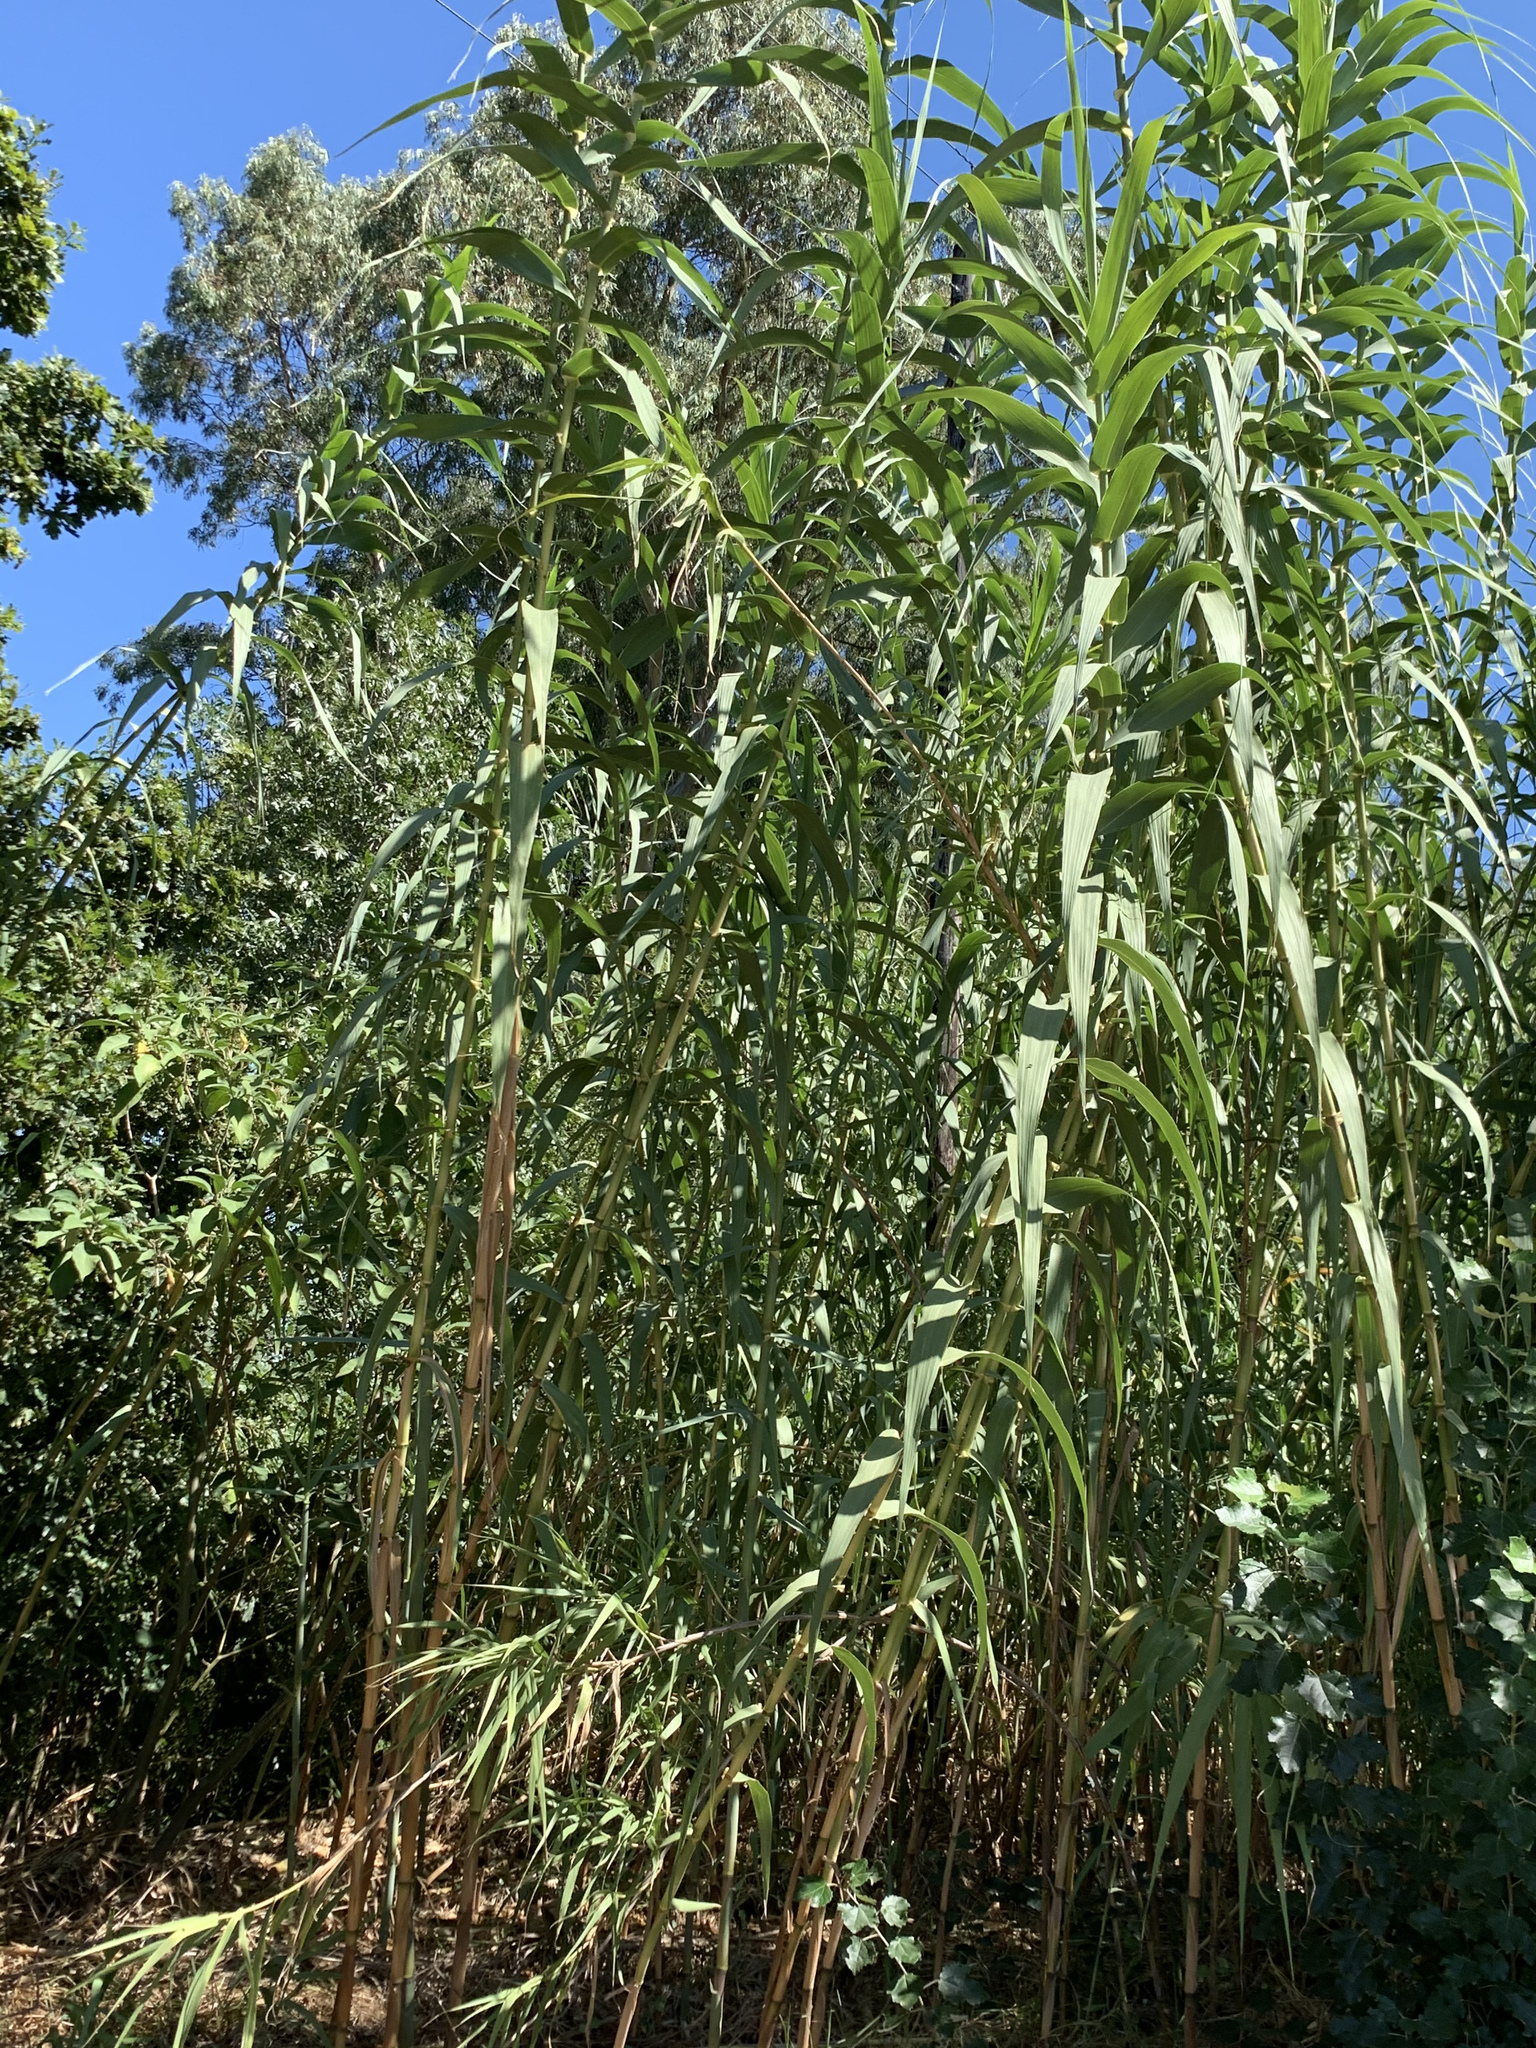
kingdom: Plantae
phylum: Tracheophyta
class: Liliopsida
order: Poales
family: Poaceae
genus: Arundo
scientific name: Arundo donax
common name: Giant reed
